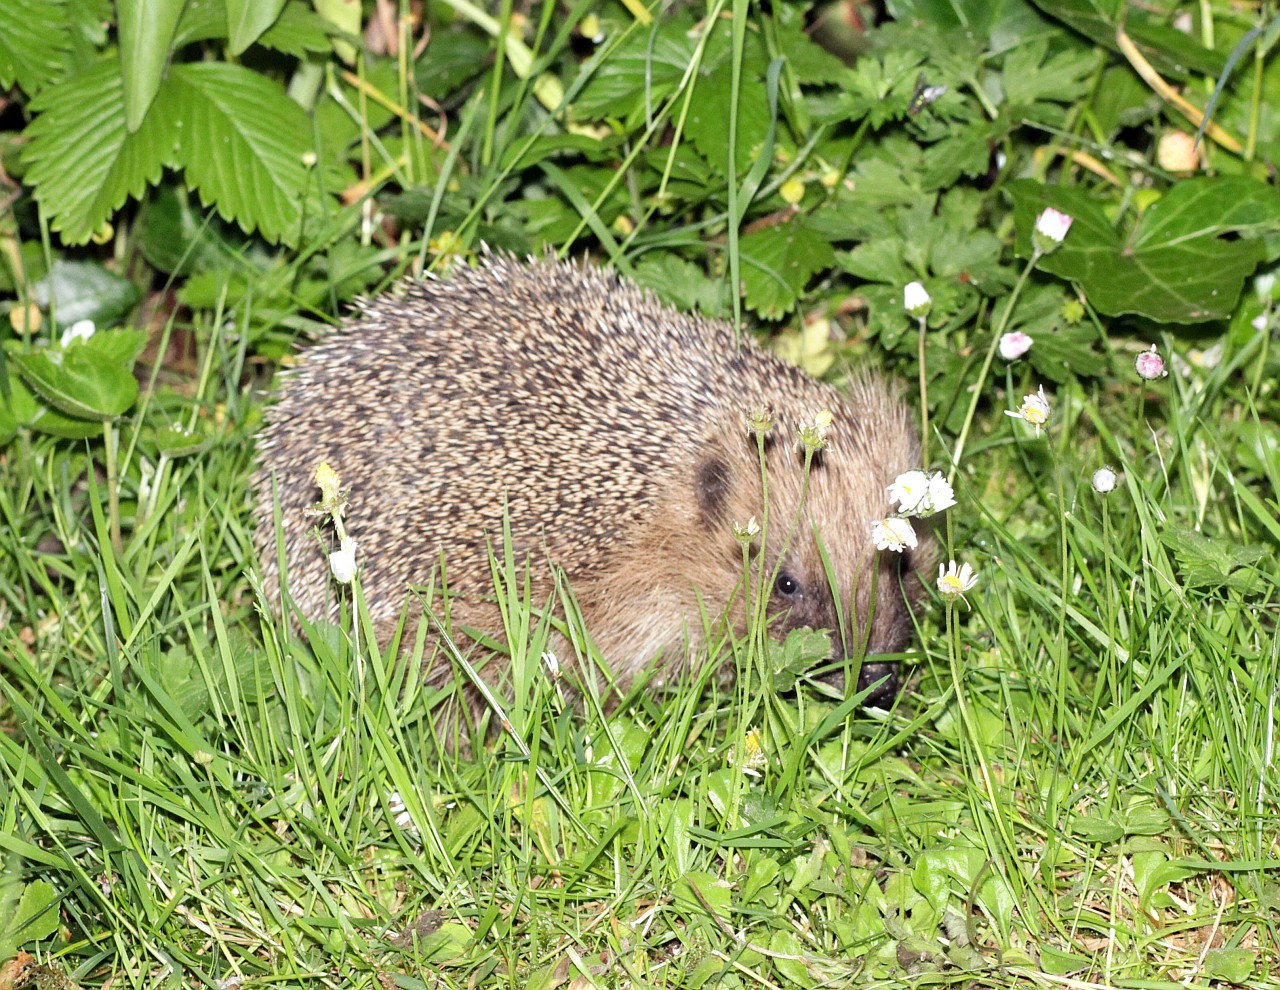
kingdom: Animalia
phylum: Chordata
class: Mammalia
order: Erinaceomorpha
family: Erinaceidae
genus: Erinaceus
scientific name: Erinaceus europaeus
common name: West european hedgehog
